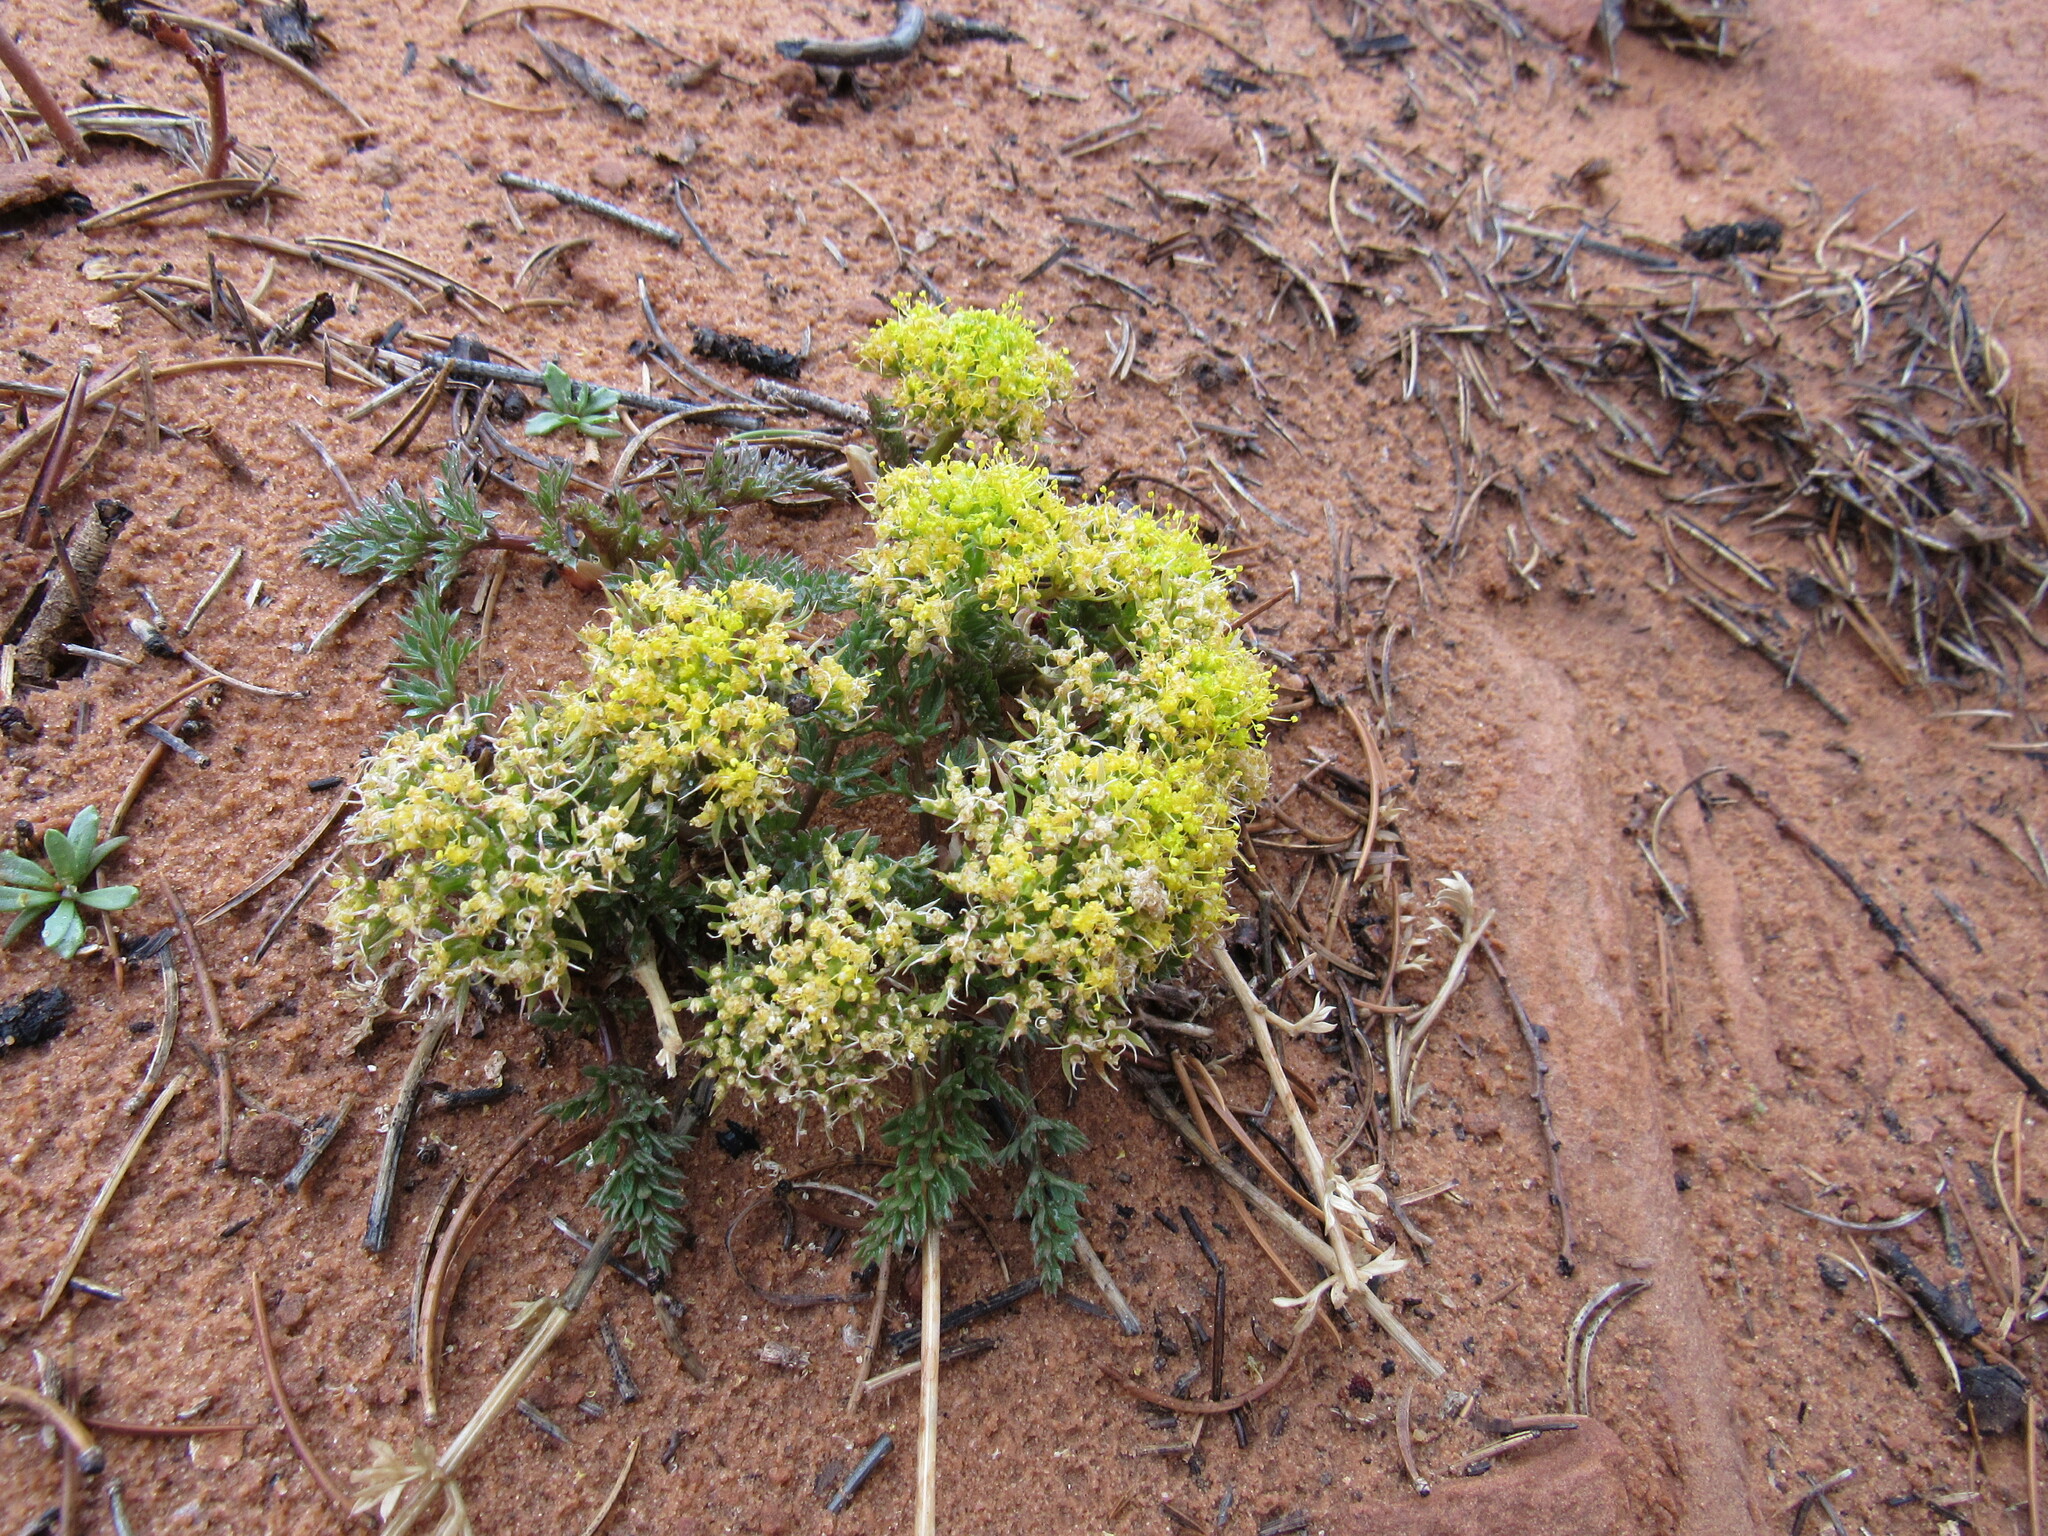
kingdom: Plantae
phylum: Tracheophyta
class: Magnoliopsida
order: Apiales
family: Apiaceae
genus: Lomatium
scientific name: Lomatium parryi
